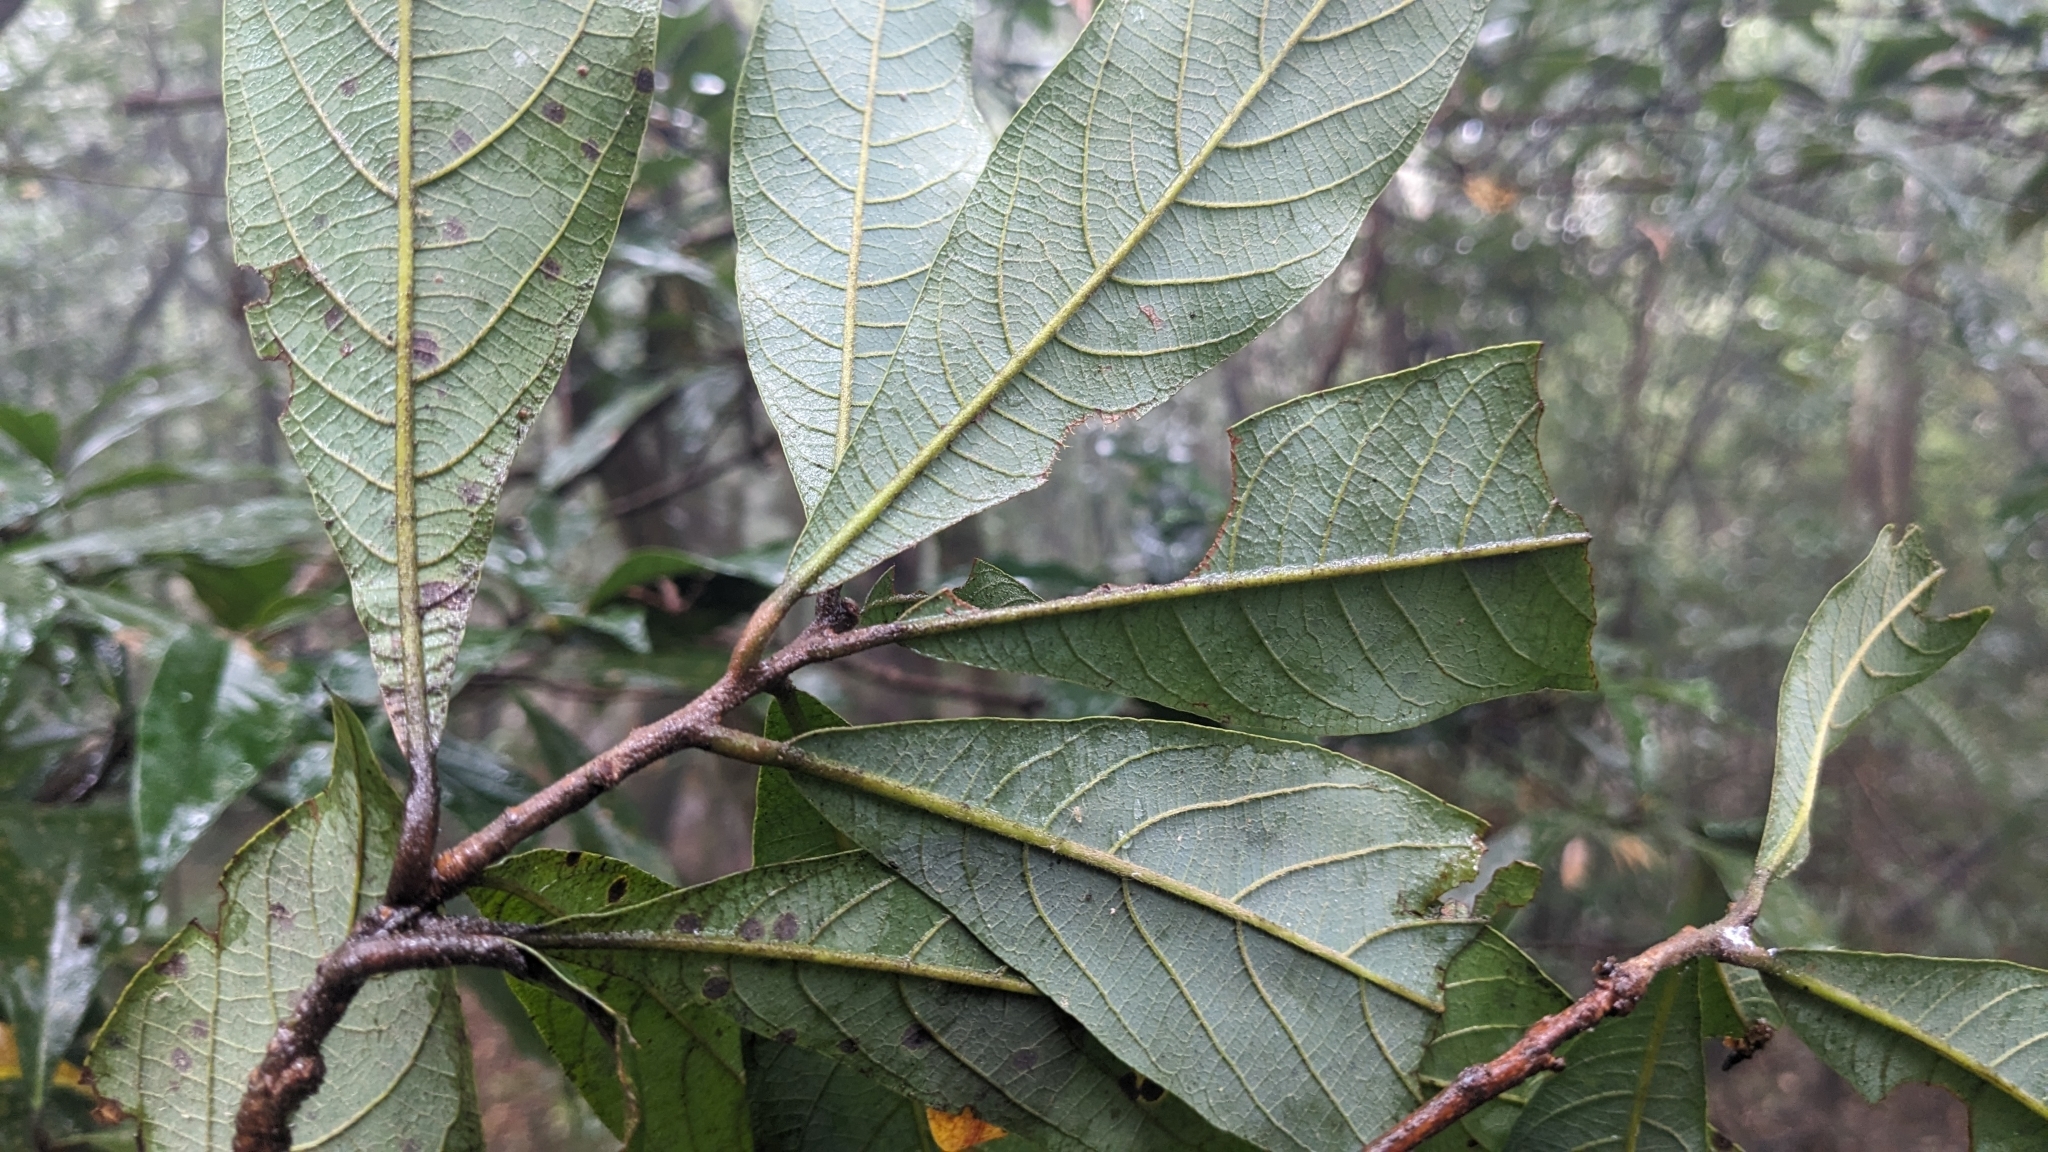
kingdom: Plantae
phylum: Tracheophyta
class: Magnoliopsida
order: Laurales
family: Lauraceae
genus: Litsea
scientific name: Litsea acutivena
